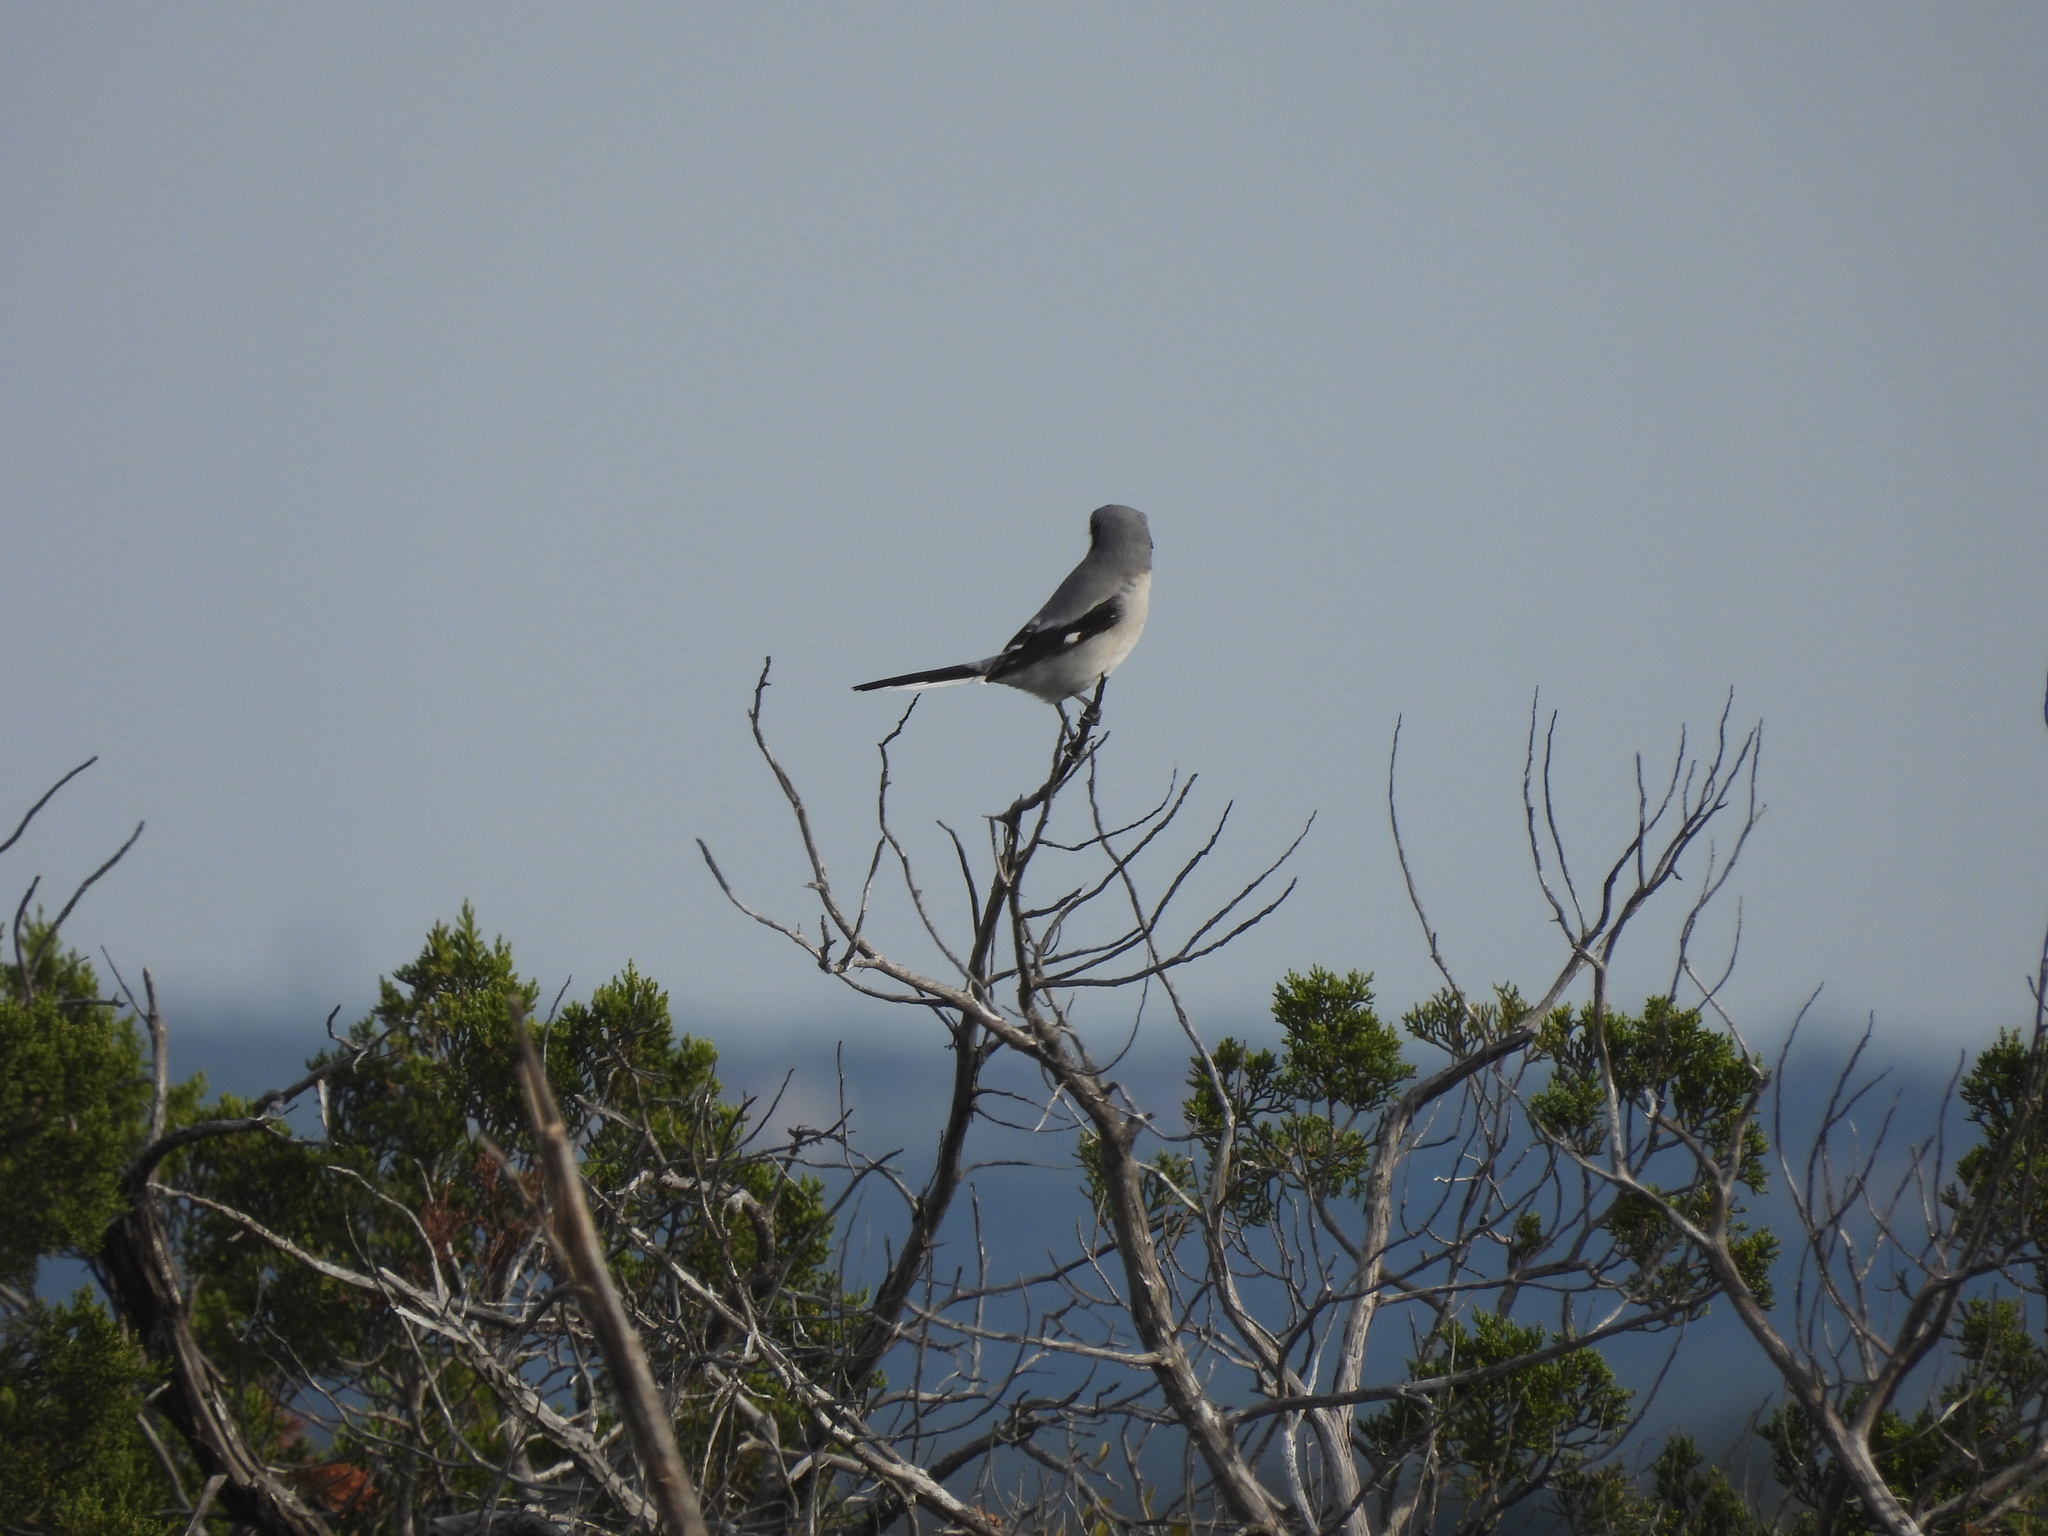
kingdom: Animalia
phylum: Chordata
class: Aves
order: Passeriformes
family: Laniidae
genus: Lanius
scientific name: Lanius ludovicianus
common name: Loggerhead shrike
